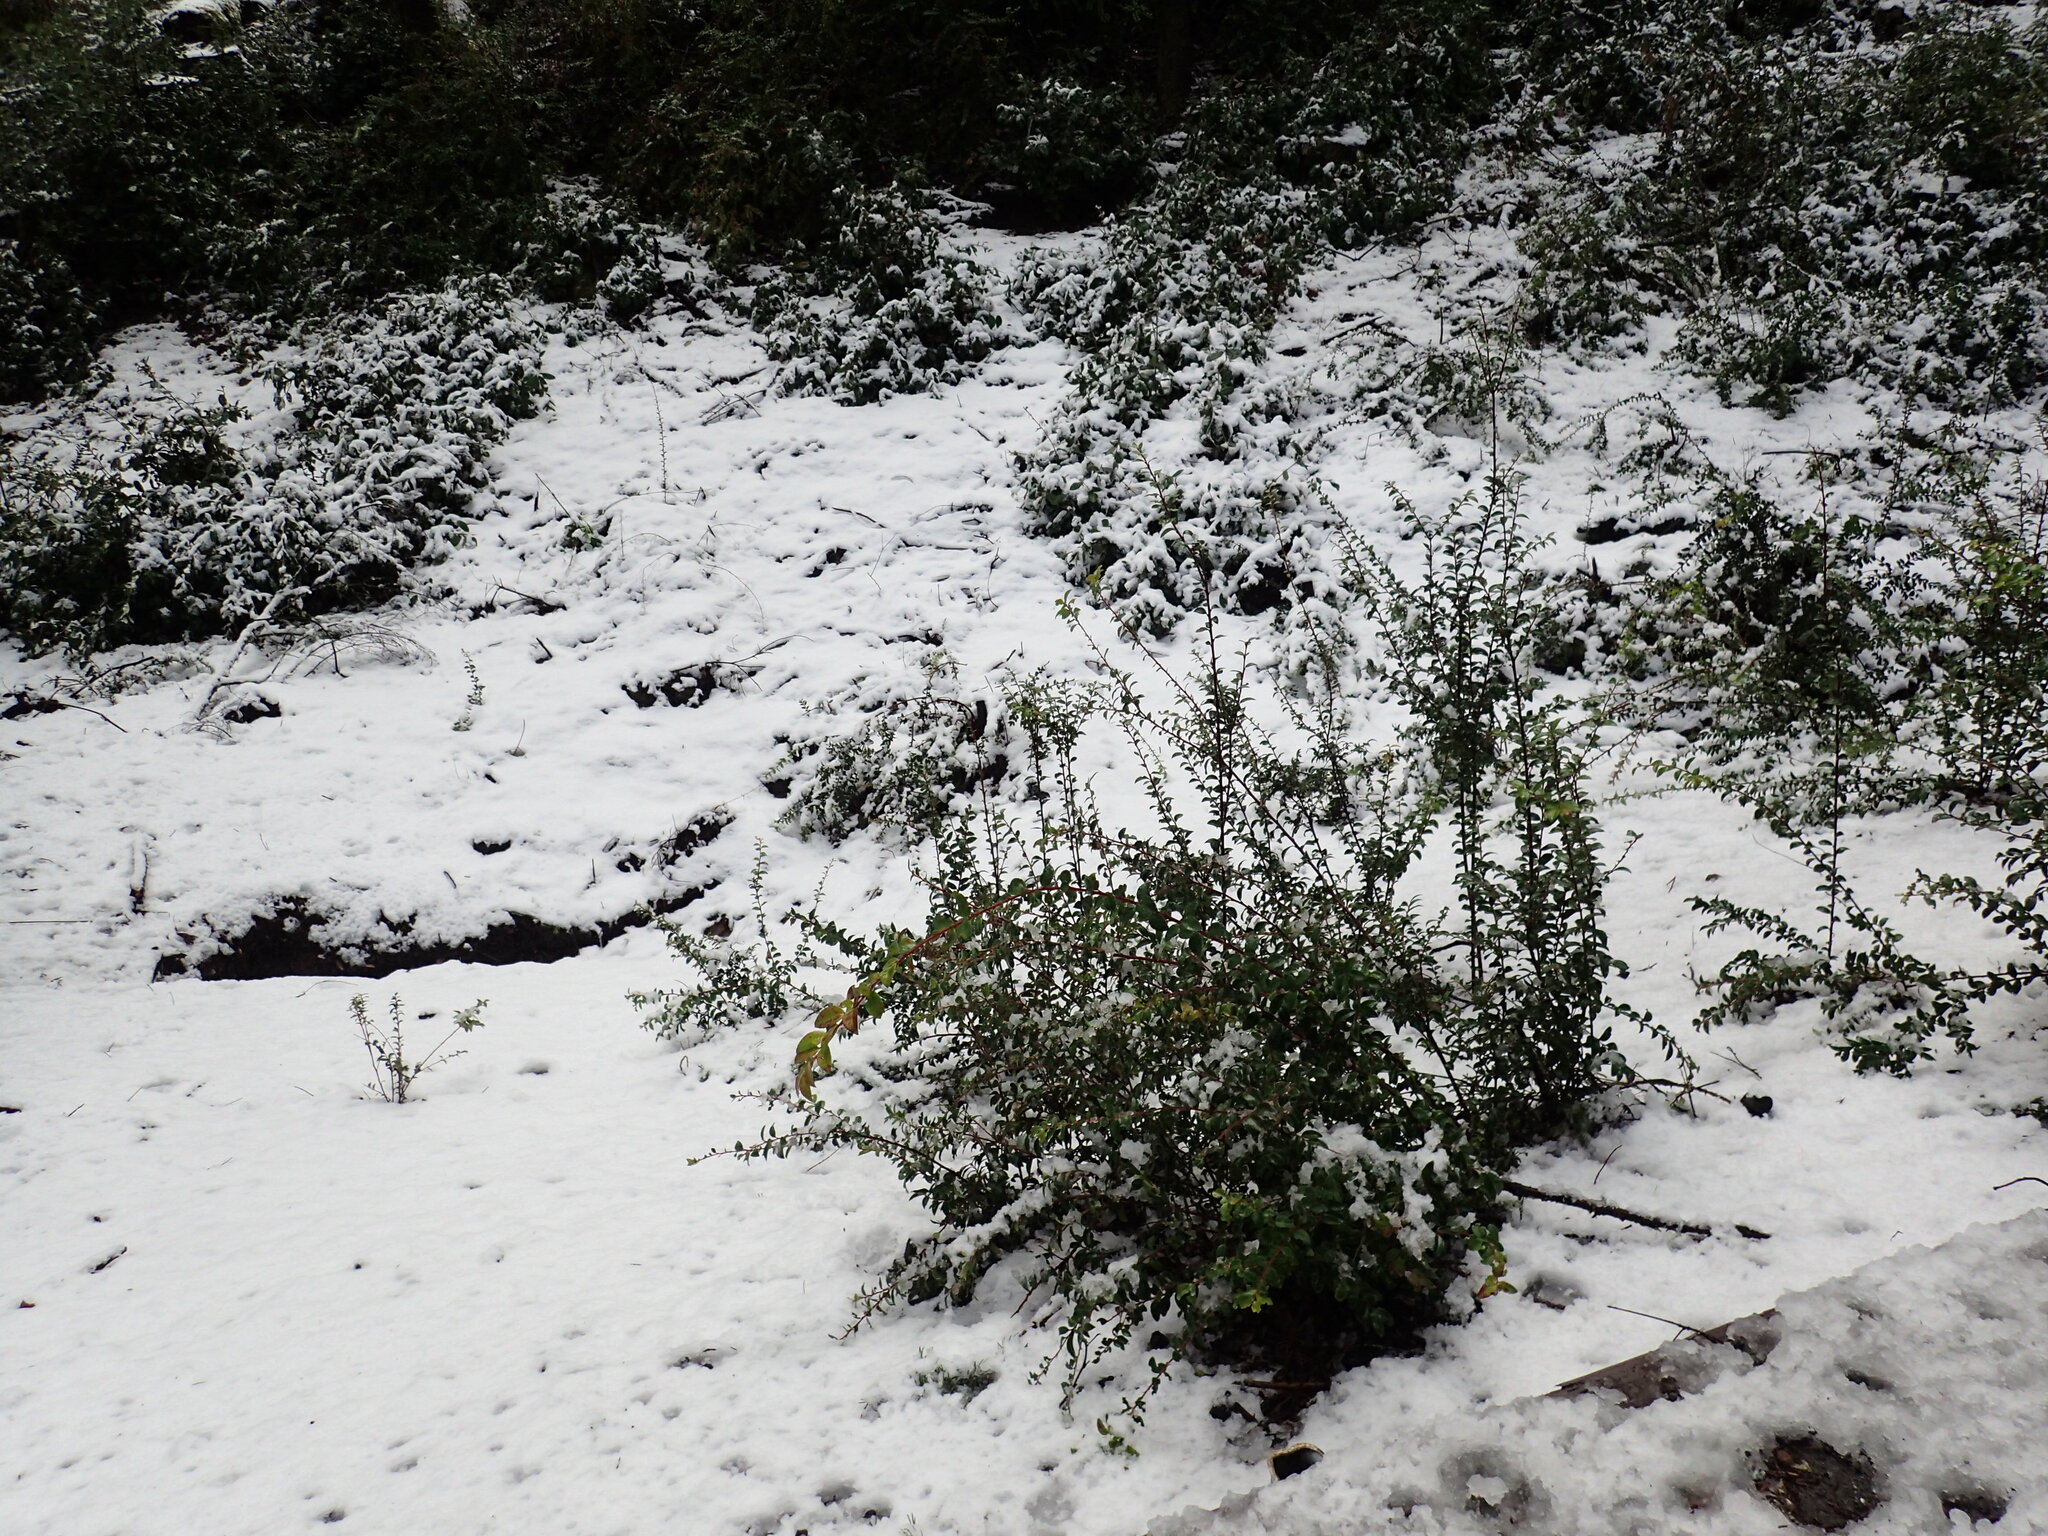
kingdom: Plantae
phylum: Tracheophyta
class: Magnoliopsida
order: Ericales
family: Ericaceae
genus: Vaccinium
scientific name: Vaccinium ovatum
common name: California-huckleberry
